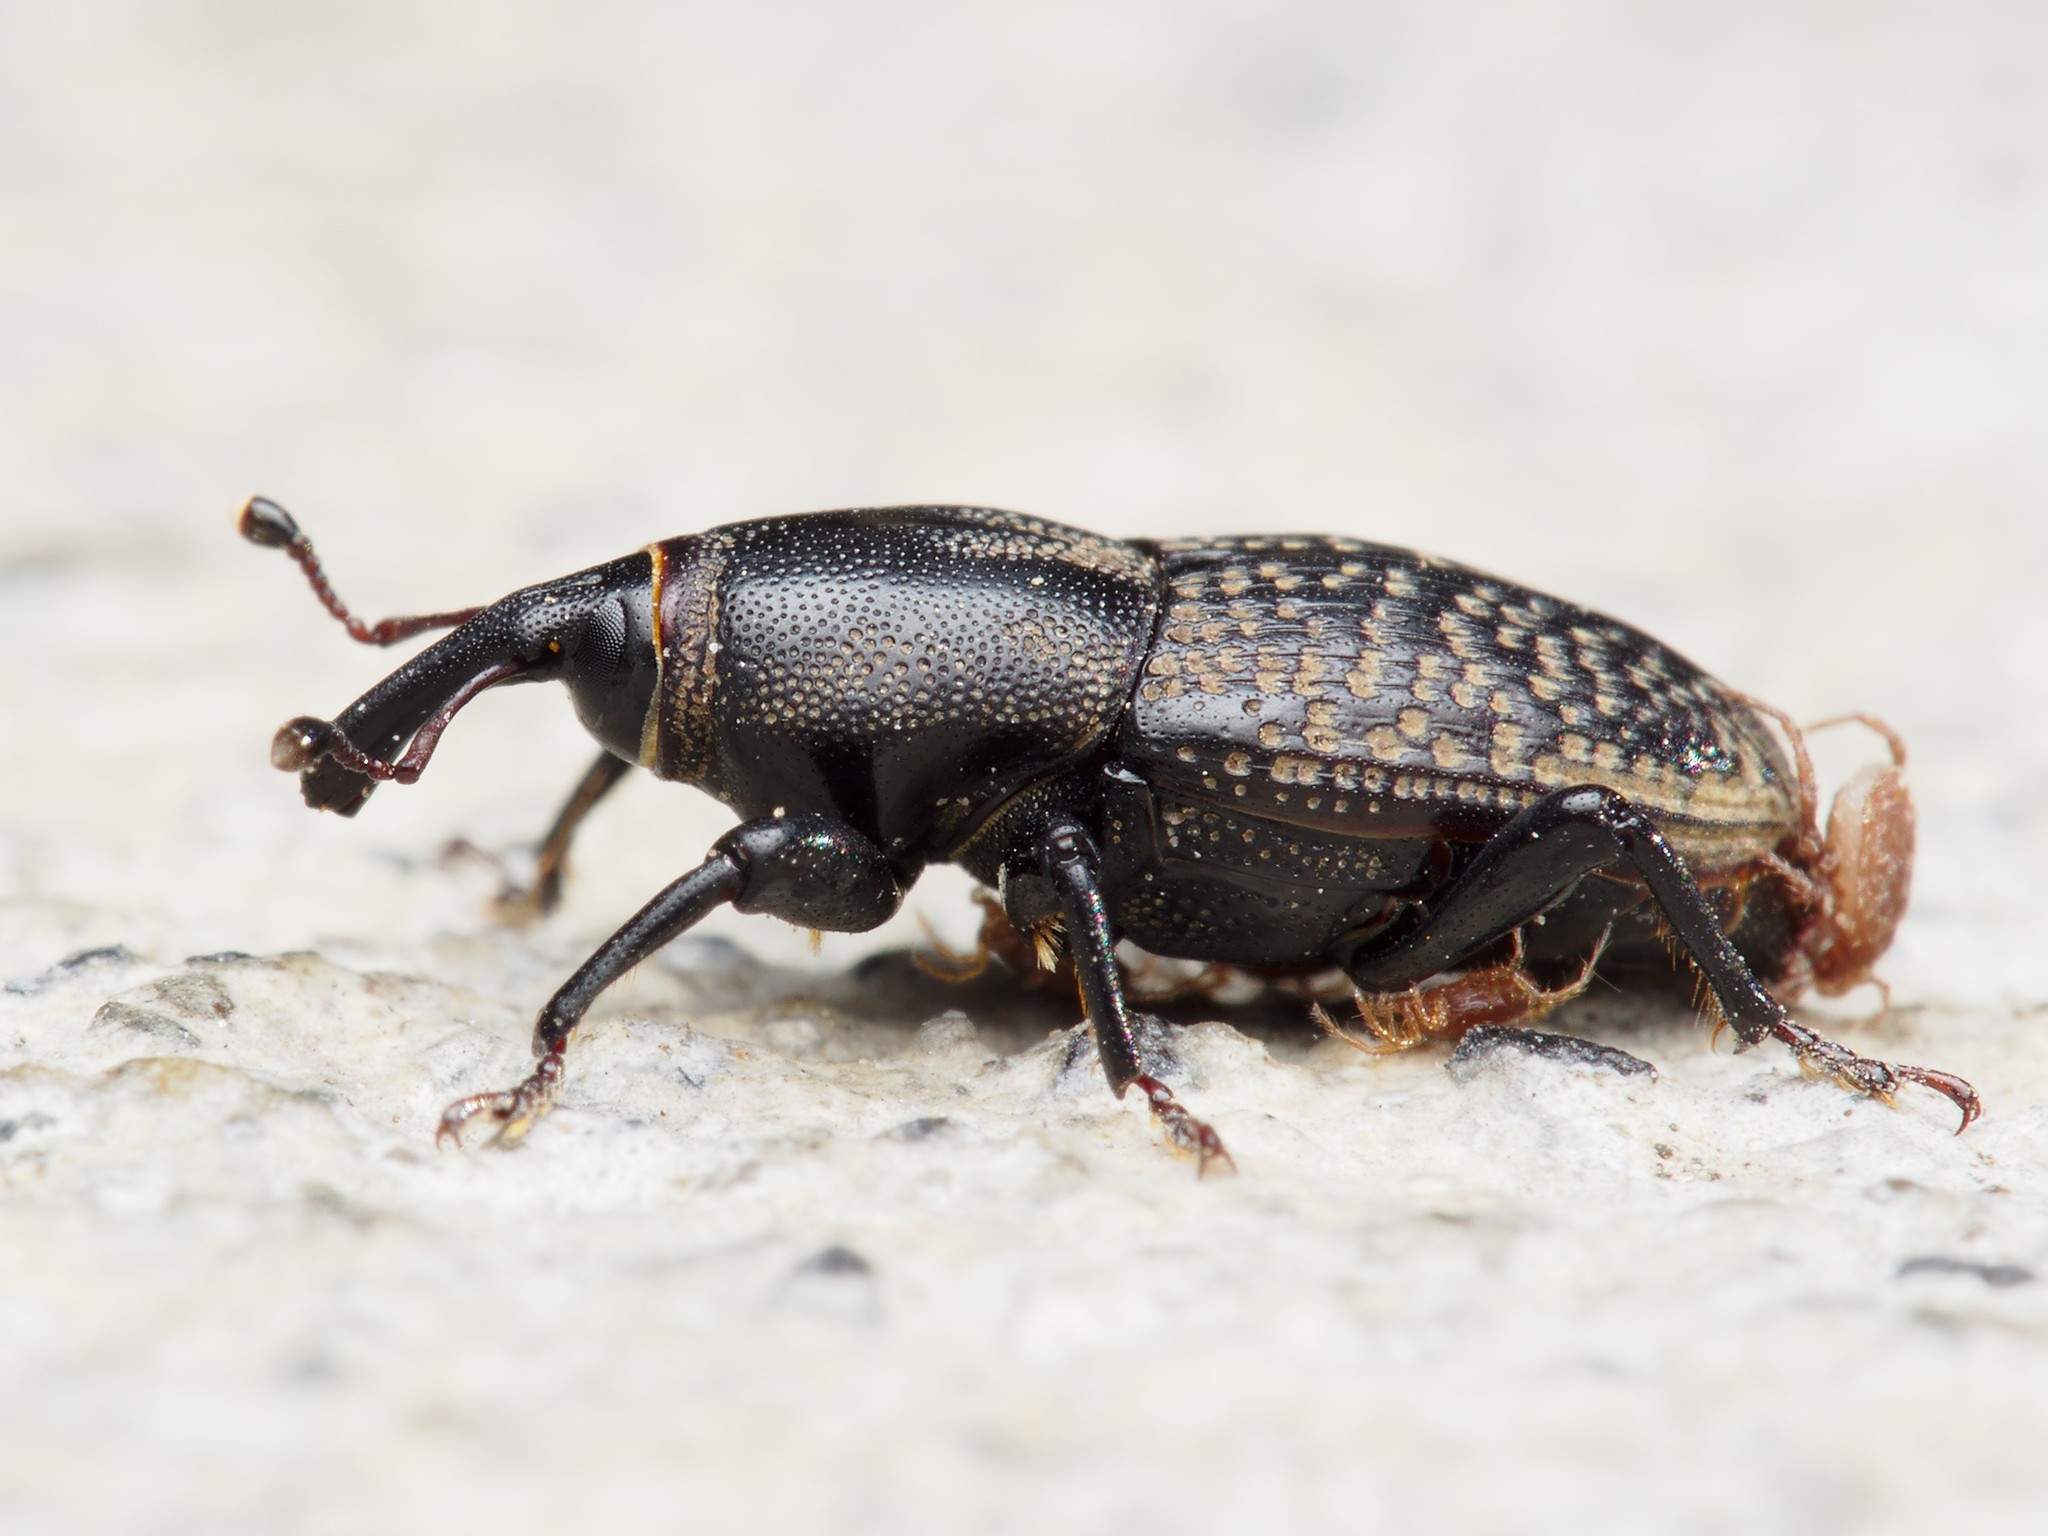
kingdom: Animalia
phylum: Arthropoda
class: Insecta
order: Coleoptera
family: Dryophthoridae
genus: Sphenophorus
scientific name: Sphenophorus cicatristriatus
